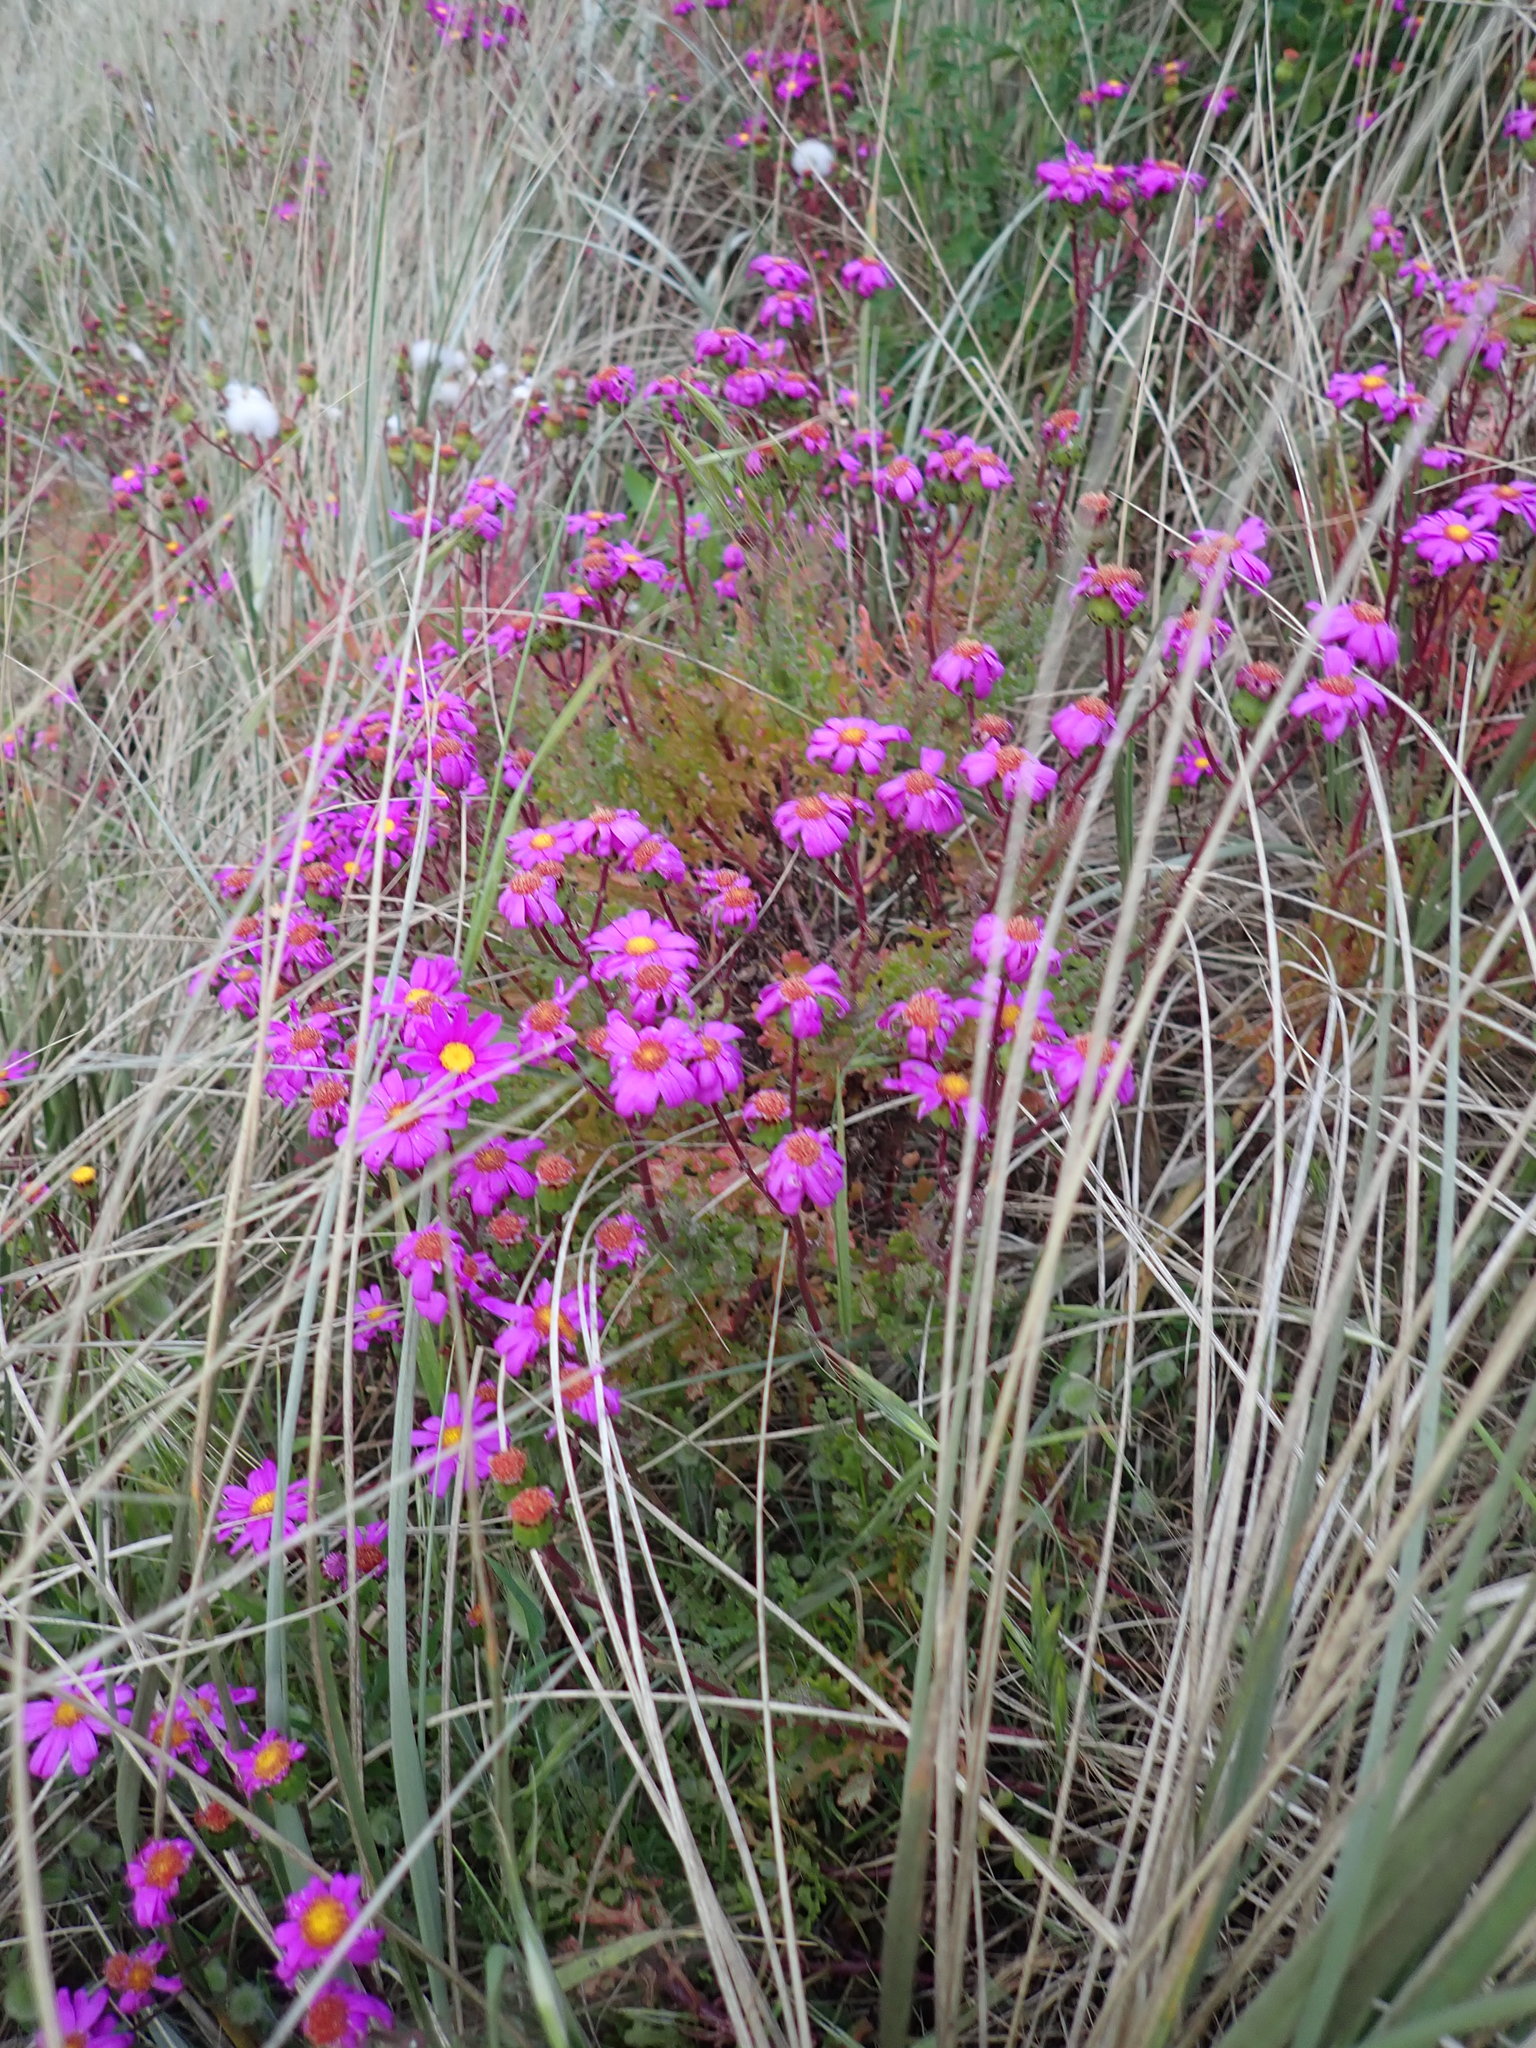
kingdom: Plantae
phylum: Tracheophyta
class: Magnoliopsida
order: Asterales
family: Asteraceae
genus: Senecio
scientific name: Senecio elegans
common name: Purple groundsel
